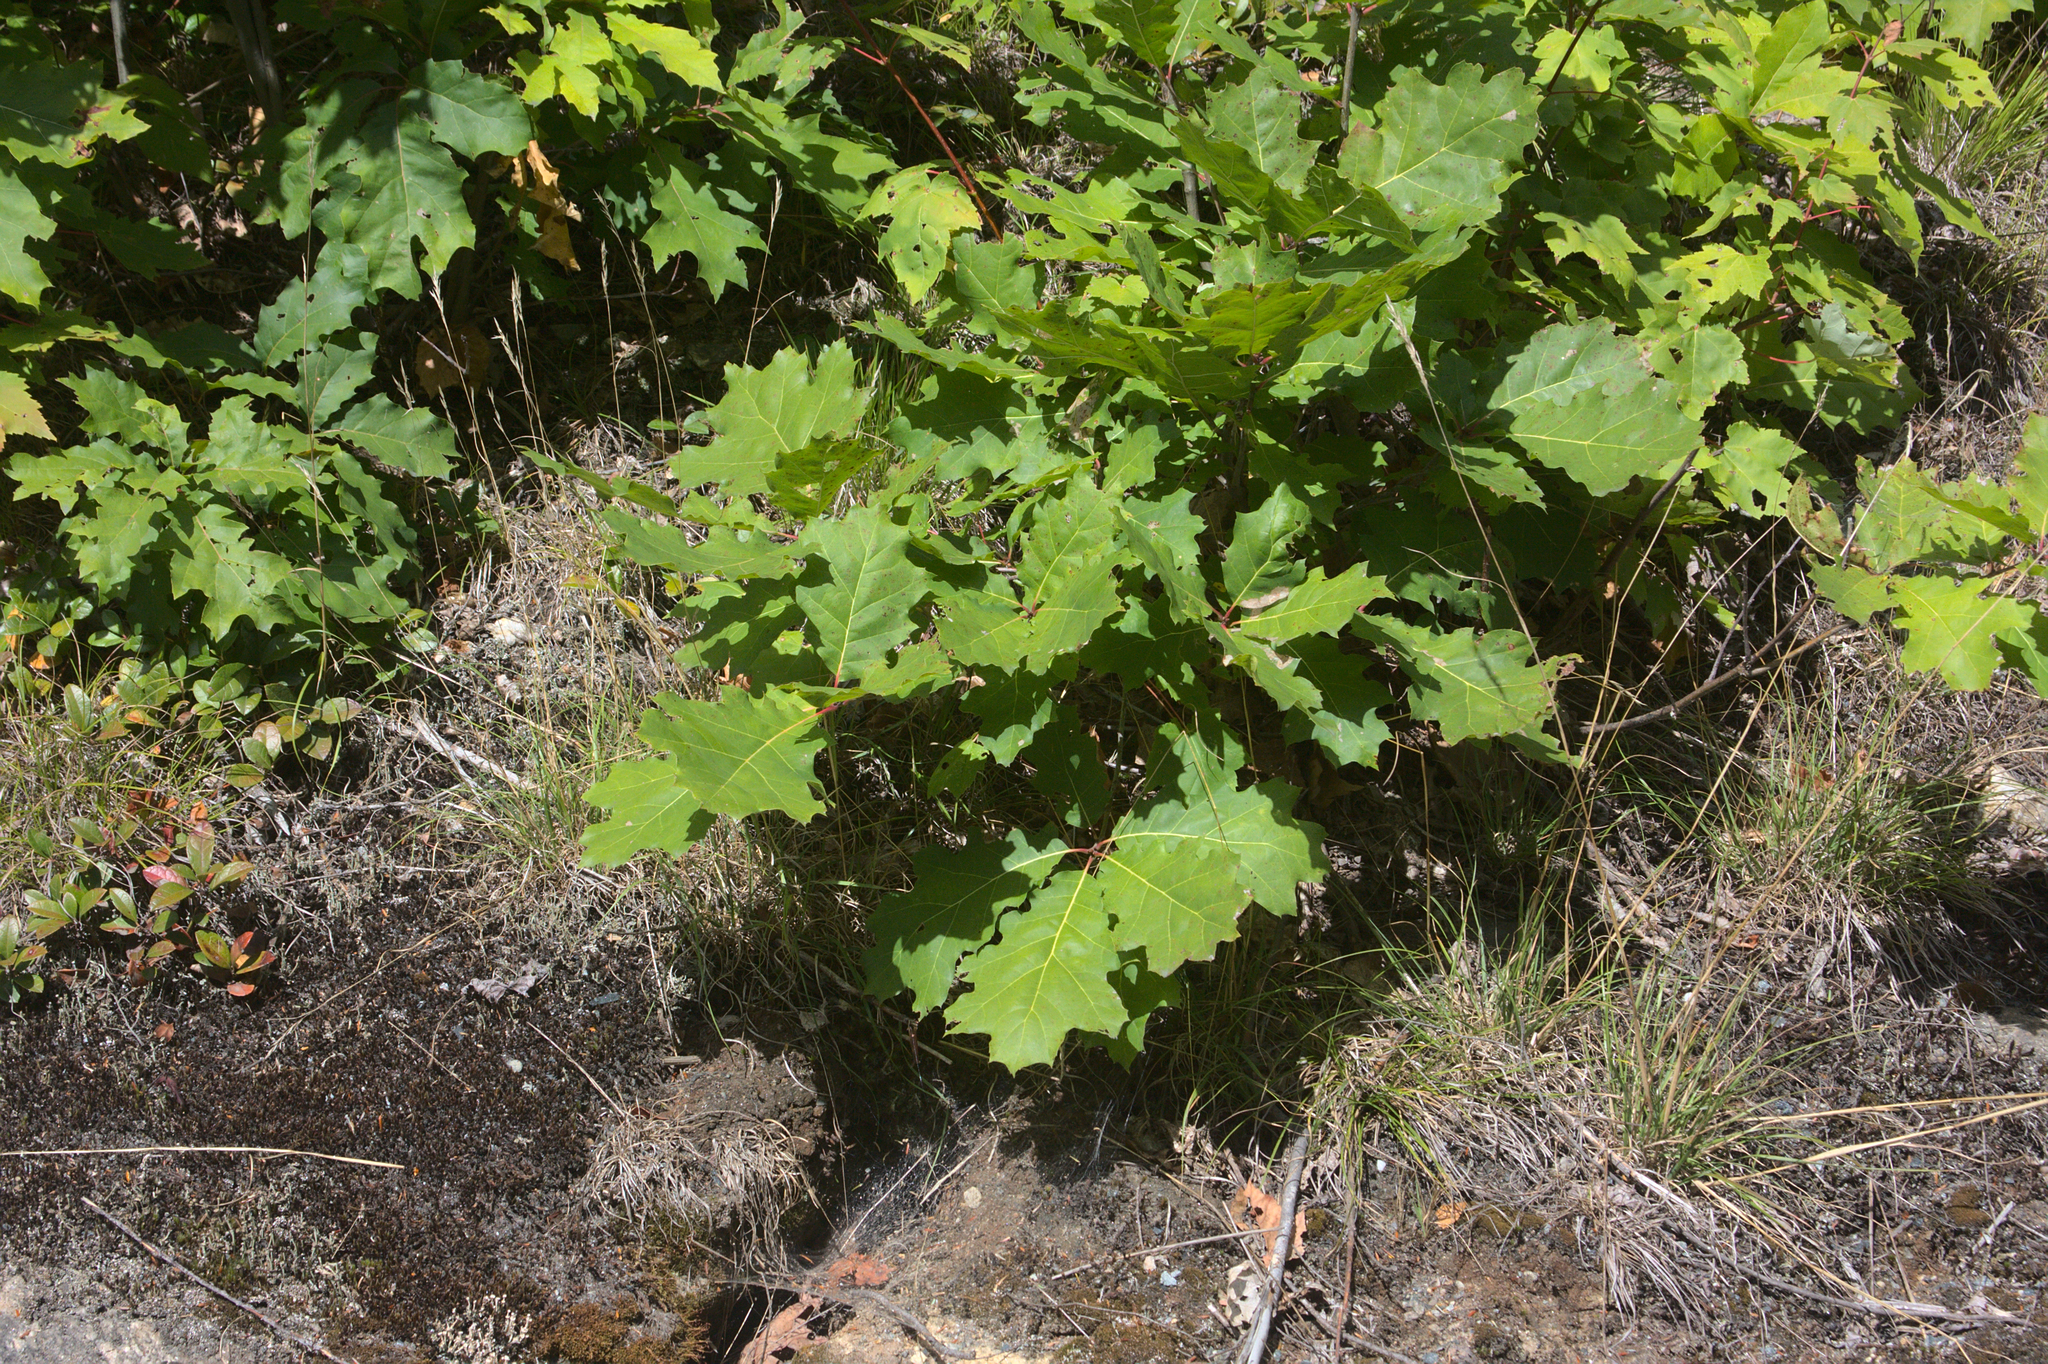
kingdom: Plantae
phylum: Tracheophyta
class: Magnoliopsida
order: Fagales
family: Fagaceae
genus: Quercus
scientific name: Quercus rubra
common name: Red oak
